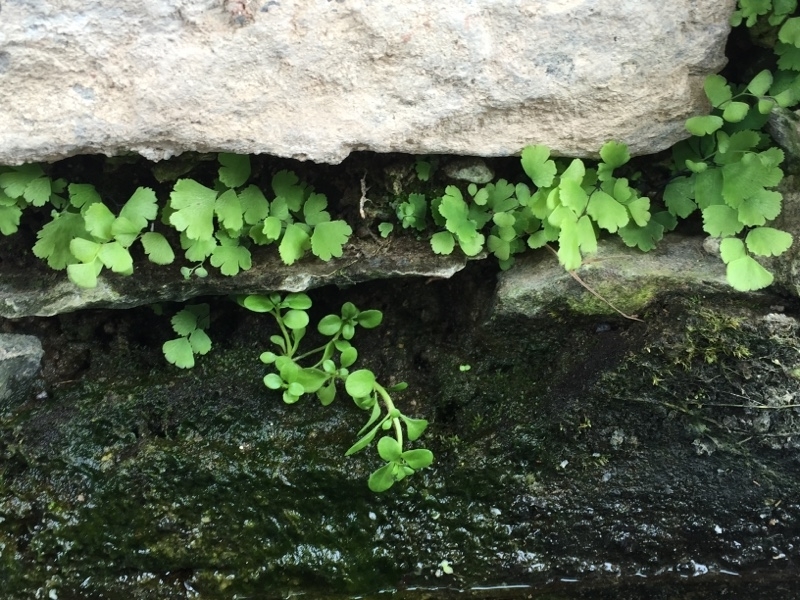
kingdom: Plantae
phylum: Tracheophyta
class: Polypodiopsida
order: Polypodiales
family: Pteridaceae
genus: Adiantum
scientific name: Adiantum capillus-veneris
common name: Maidenhair fern
